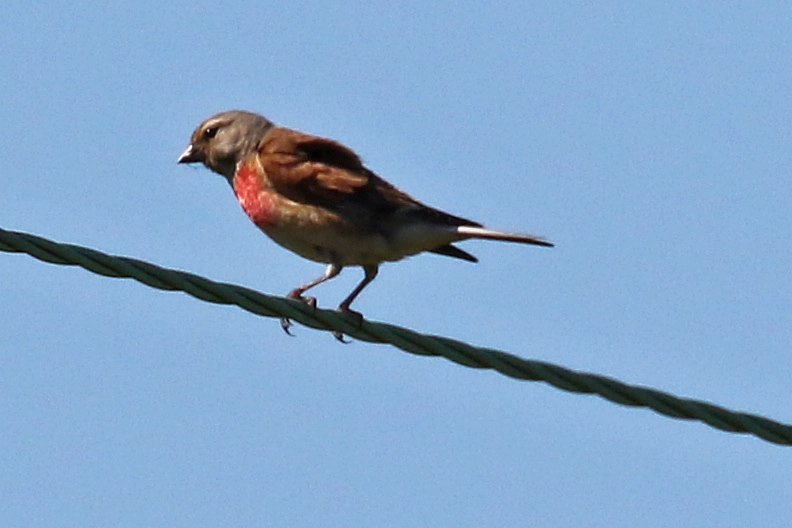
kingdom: Animalia
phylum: Chordata
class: Aves
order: Passeriformes
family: Fringillidae
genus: Linaria
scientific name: Linaria cannabina
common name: Common linnet
